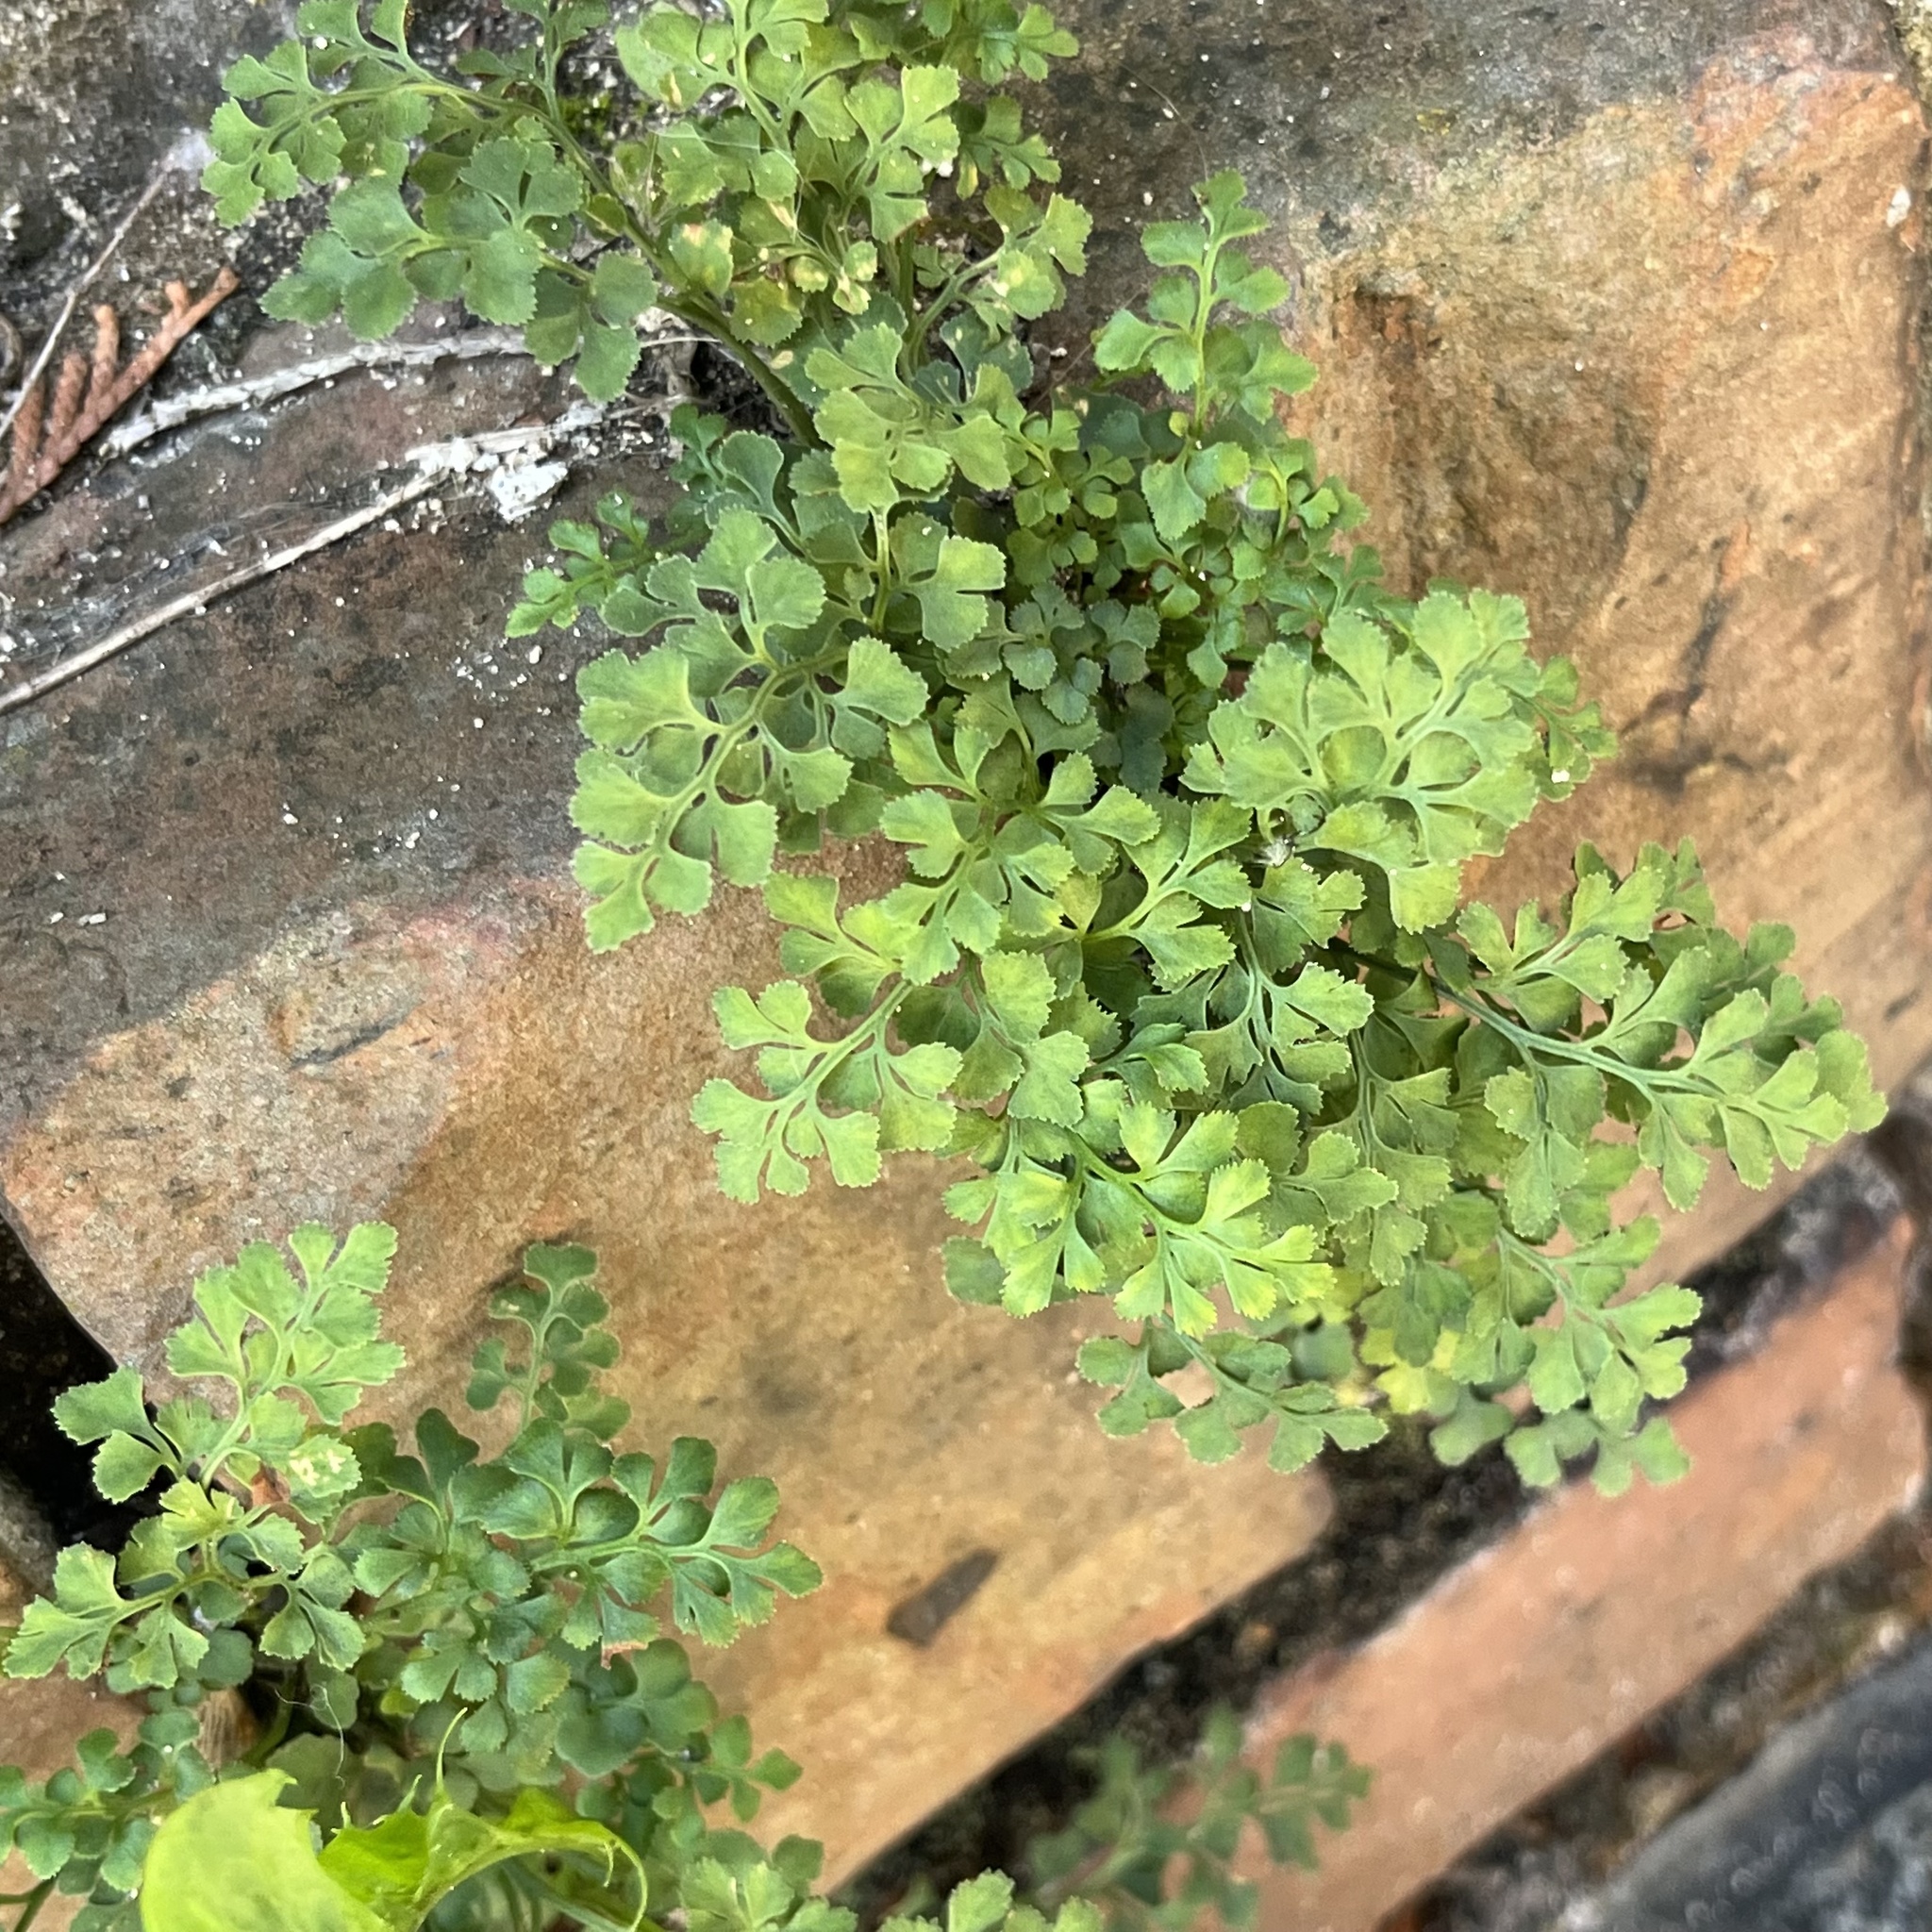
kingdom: Plantae
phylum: Tracheophyta
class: Polypodiopsida
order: Polypodiales
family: Aspleniaceae
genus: Asplenium
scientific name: Asplenium ruta-muraria
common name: Wall-rue
